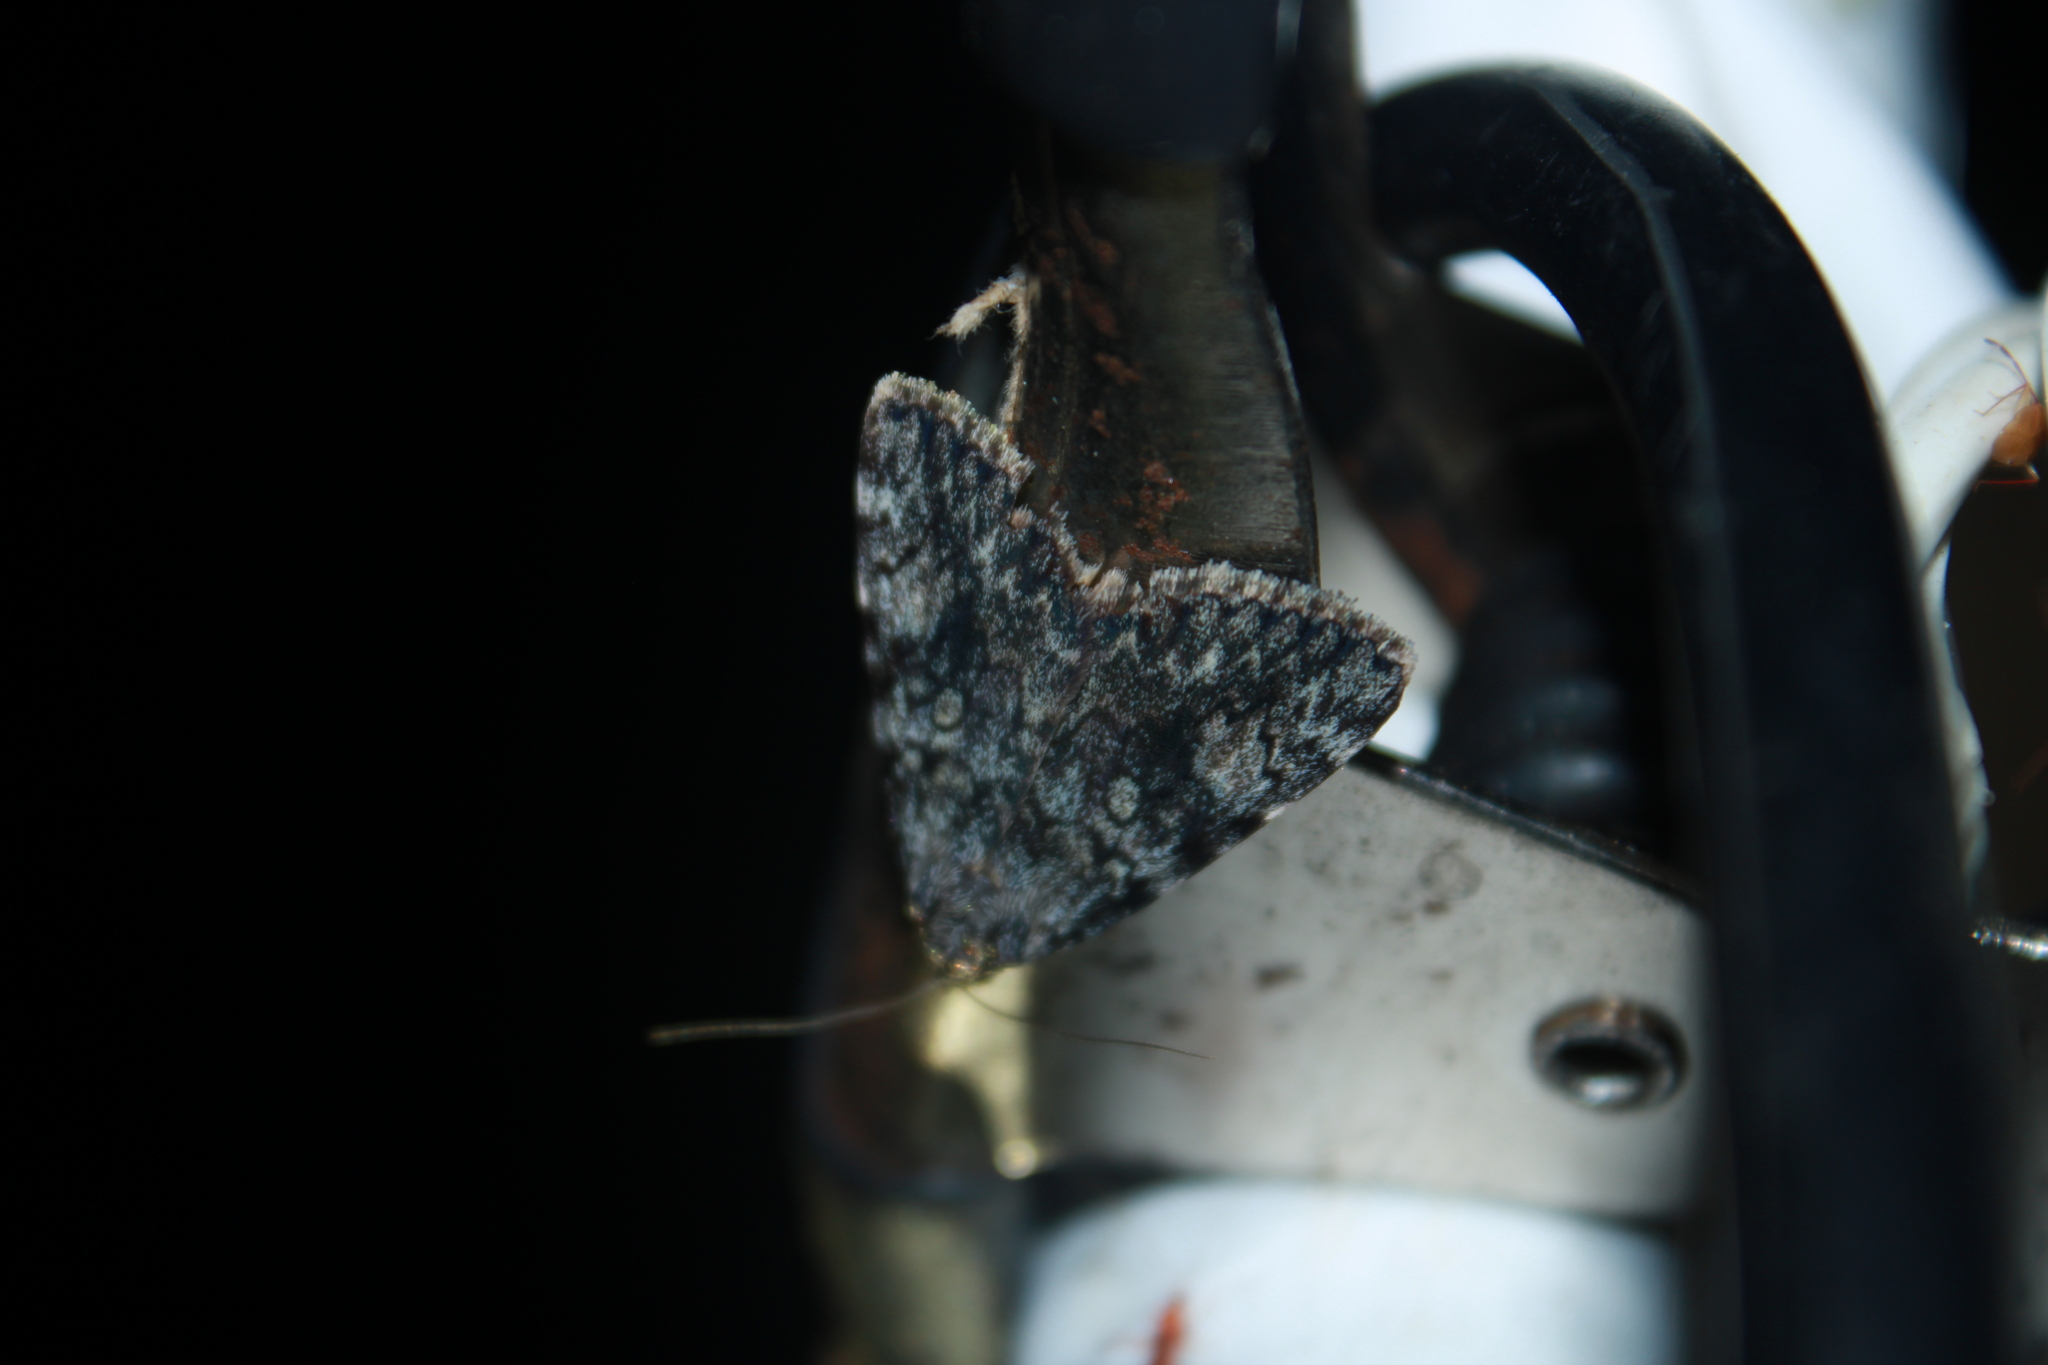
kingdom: Animalia
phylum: Arthropoda
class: Insecta
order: Lepidoptera
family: Erebidae
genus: Catocala
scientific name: Catocala lineella
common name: Little lined underwing
